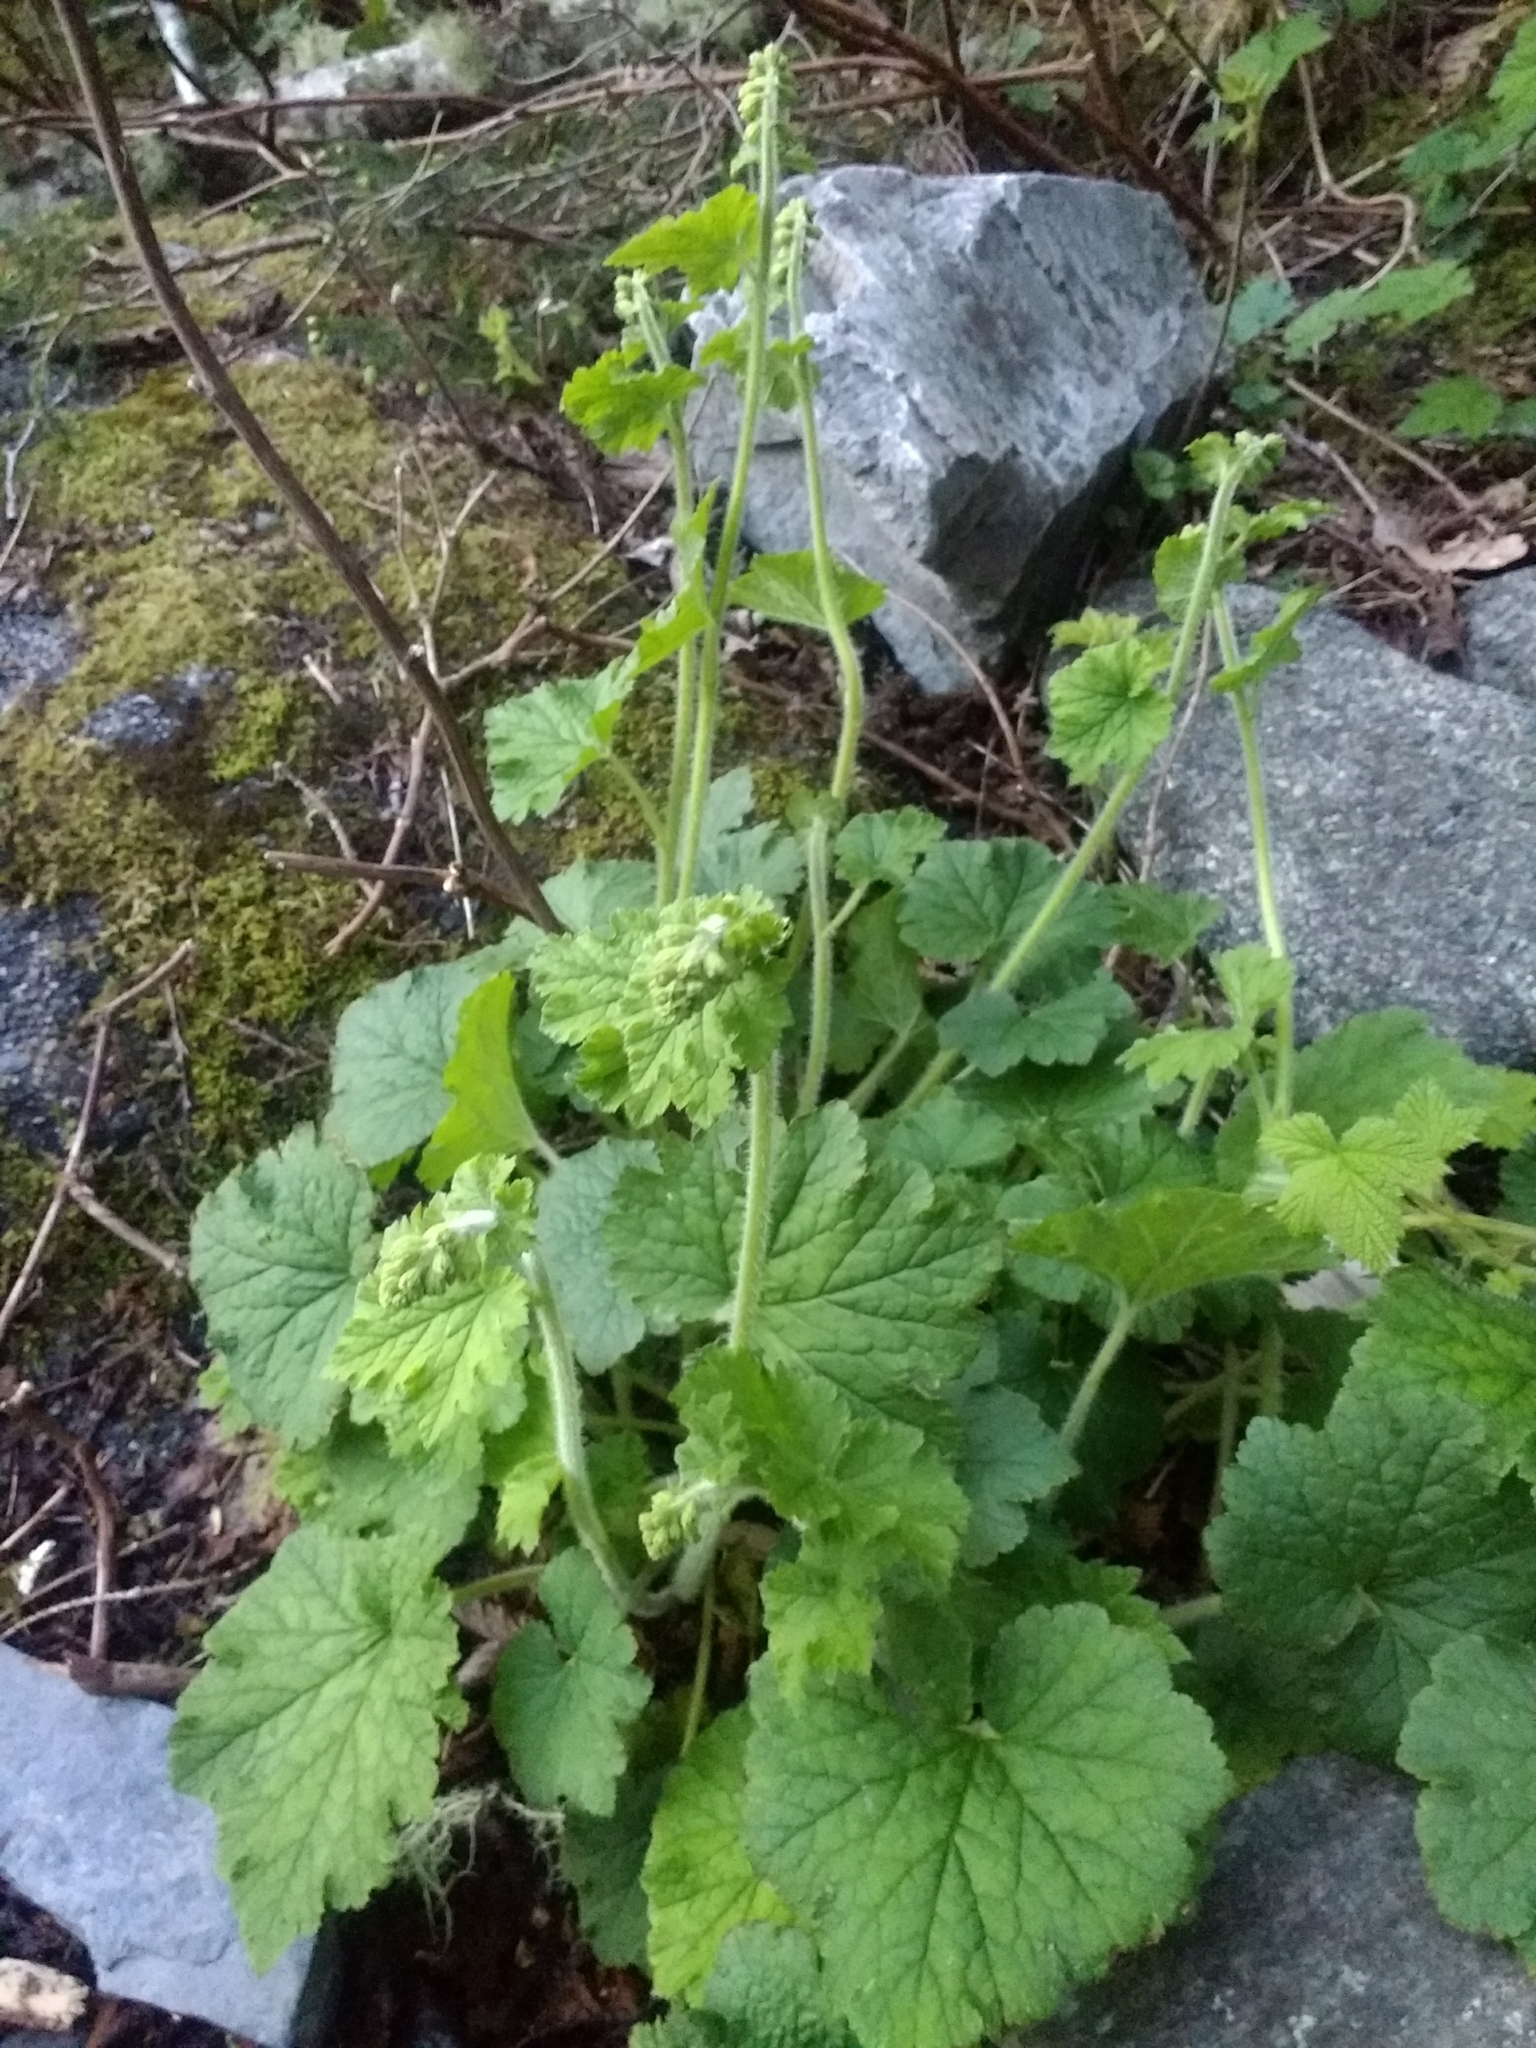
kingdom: Plantae
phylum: Tracheophyta
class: Magnoliopsida
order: Saxifragales
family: Saxifragaceae
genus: Tellima
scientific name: Tellima grandiflora
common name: Fringecups
